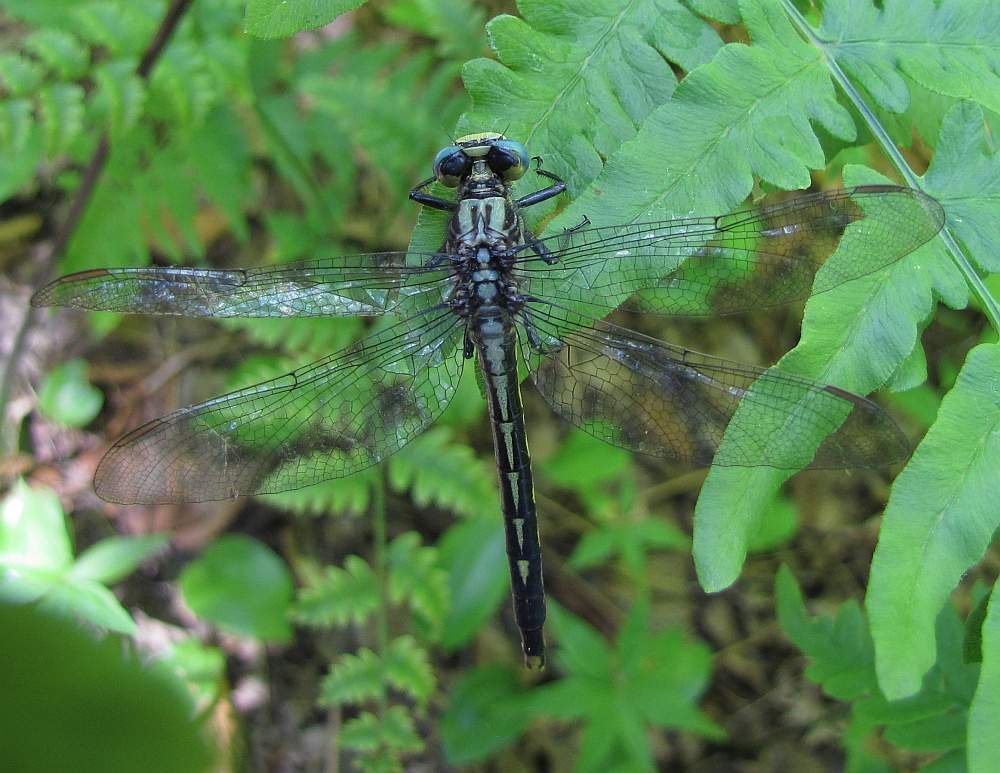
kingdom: Animalia
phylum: Arthropoda
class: Insecta
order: Odonata
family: Gomphidae
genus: Arigomphus
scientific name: Arigomphus furcifer
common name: Lilypad clubtail
